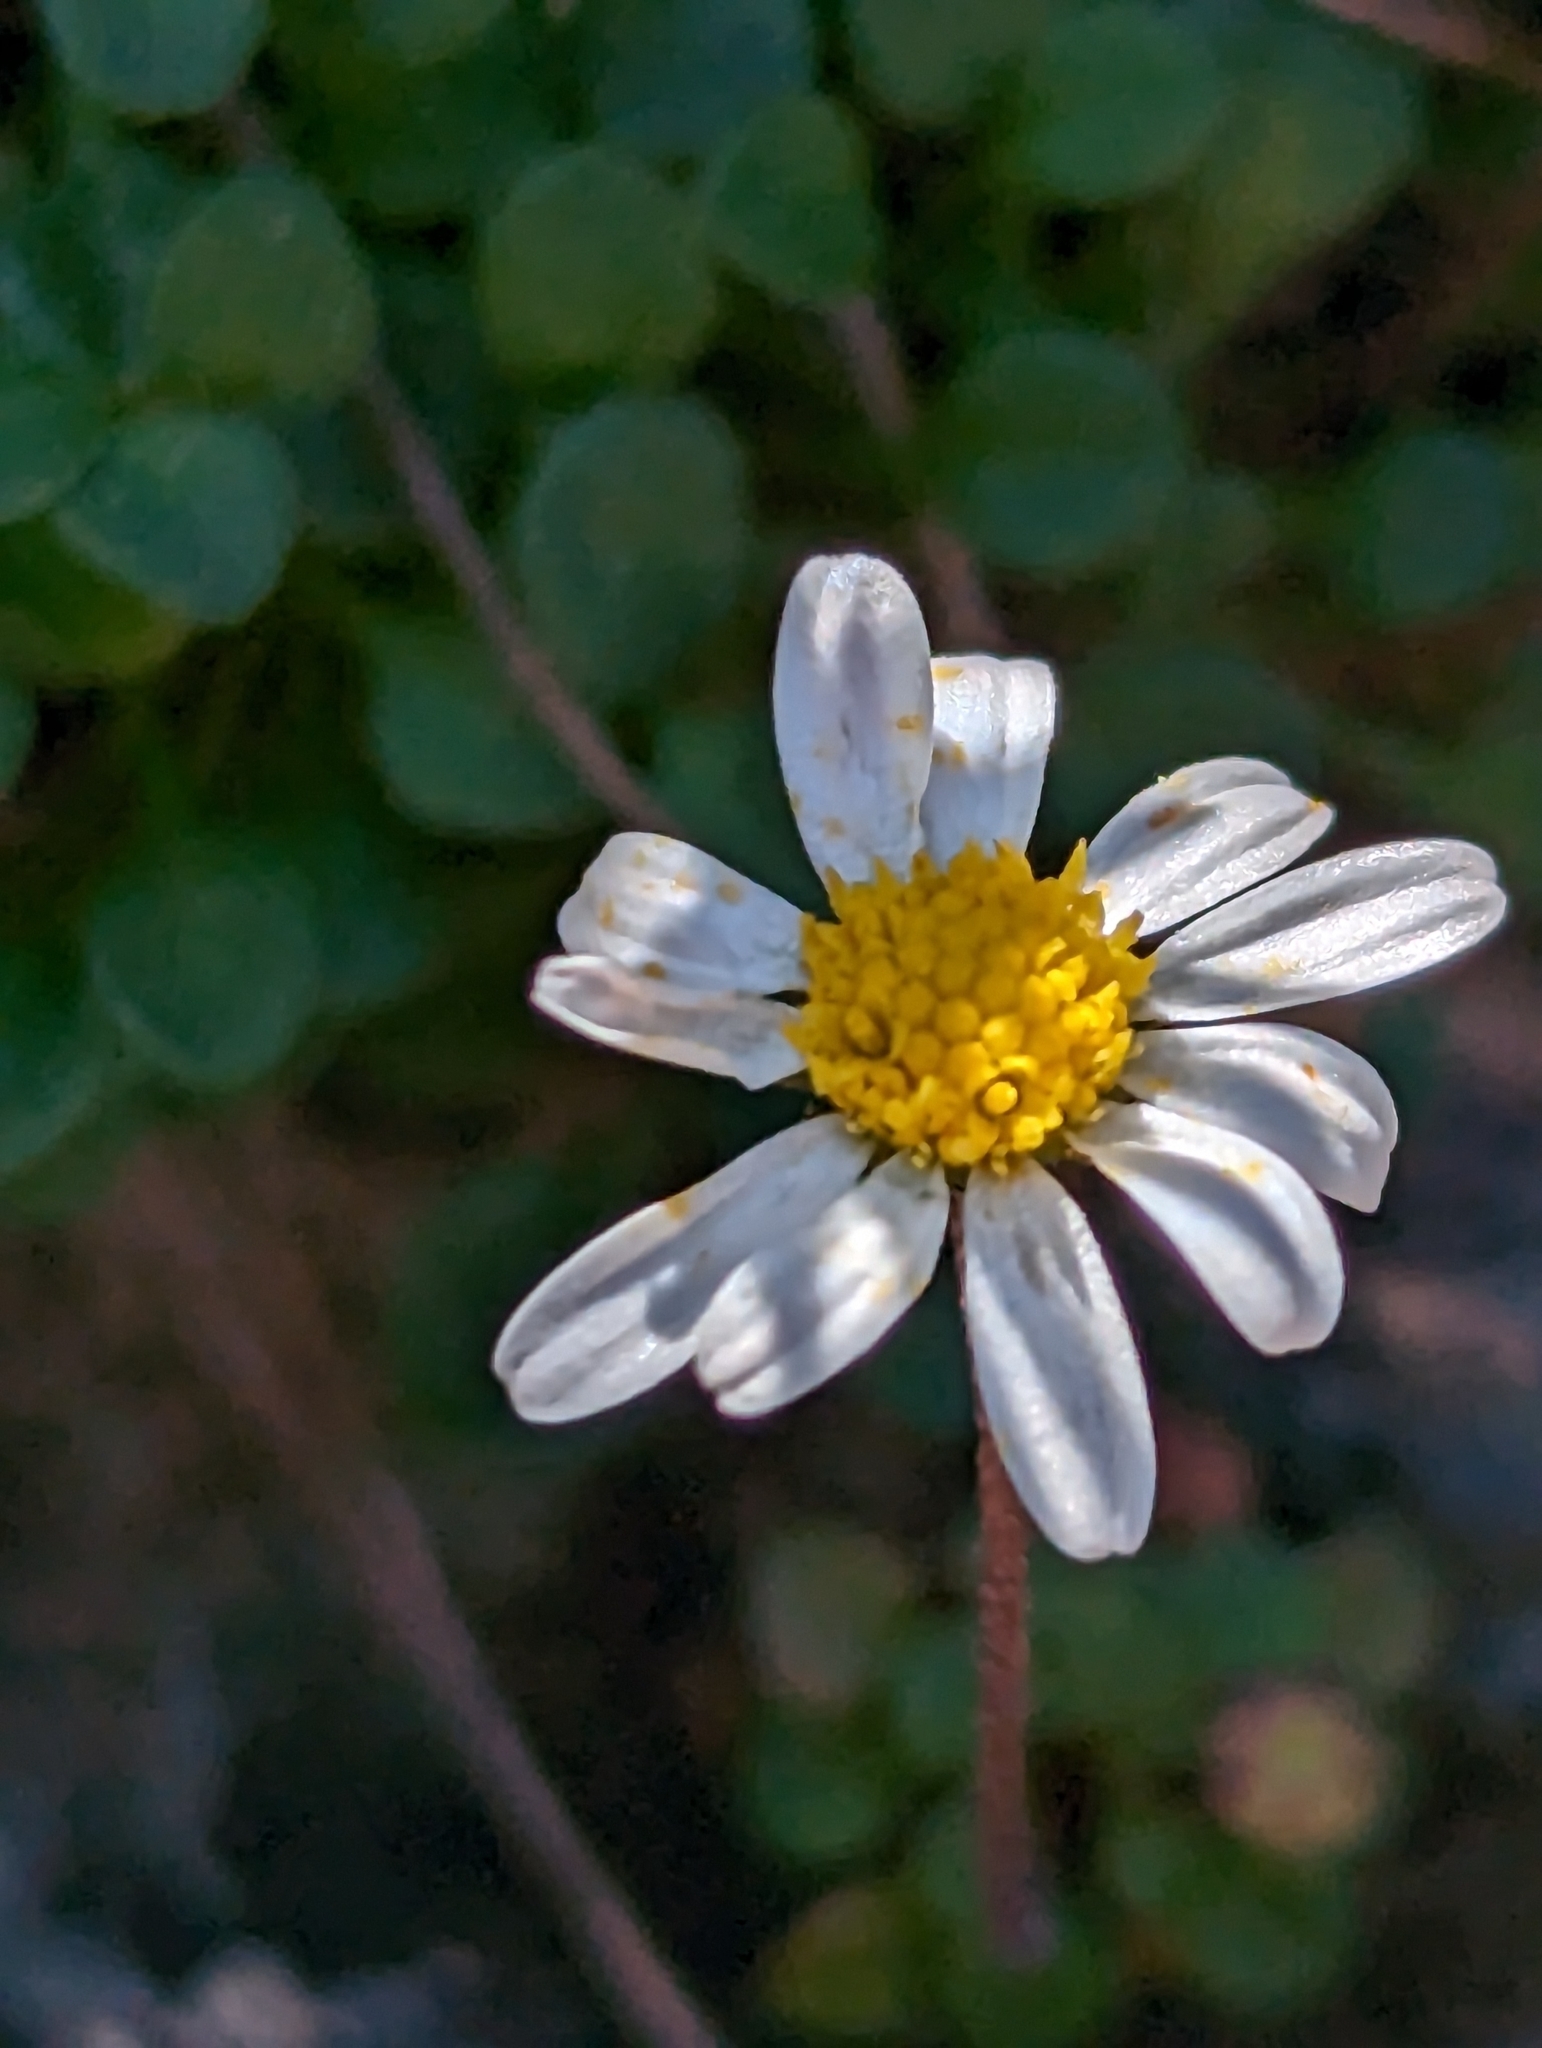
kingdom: Plantae
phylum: Tracheophyta
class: Magnoliopsida
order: Asterales
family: Asteraceae
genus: Bellium
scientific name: Bellium bellidioides
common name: False daisy
